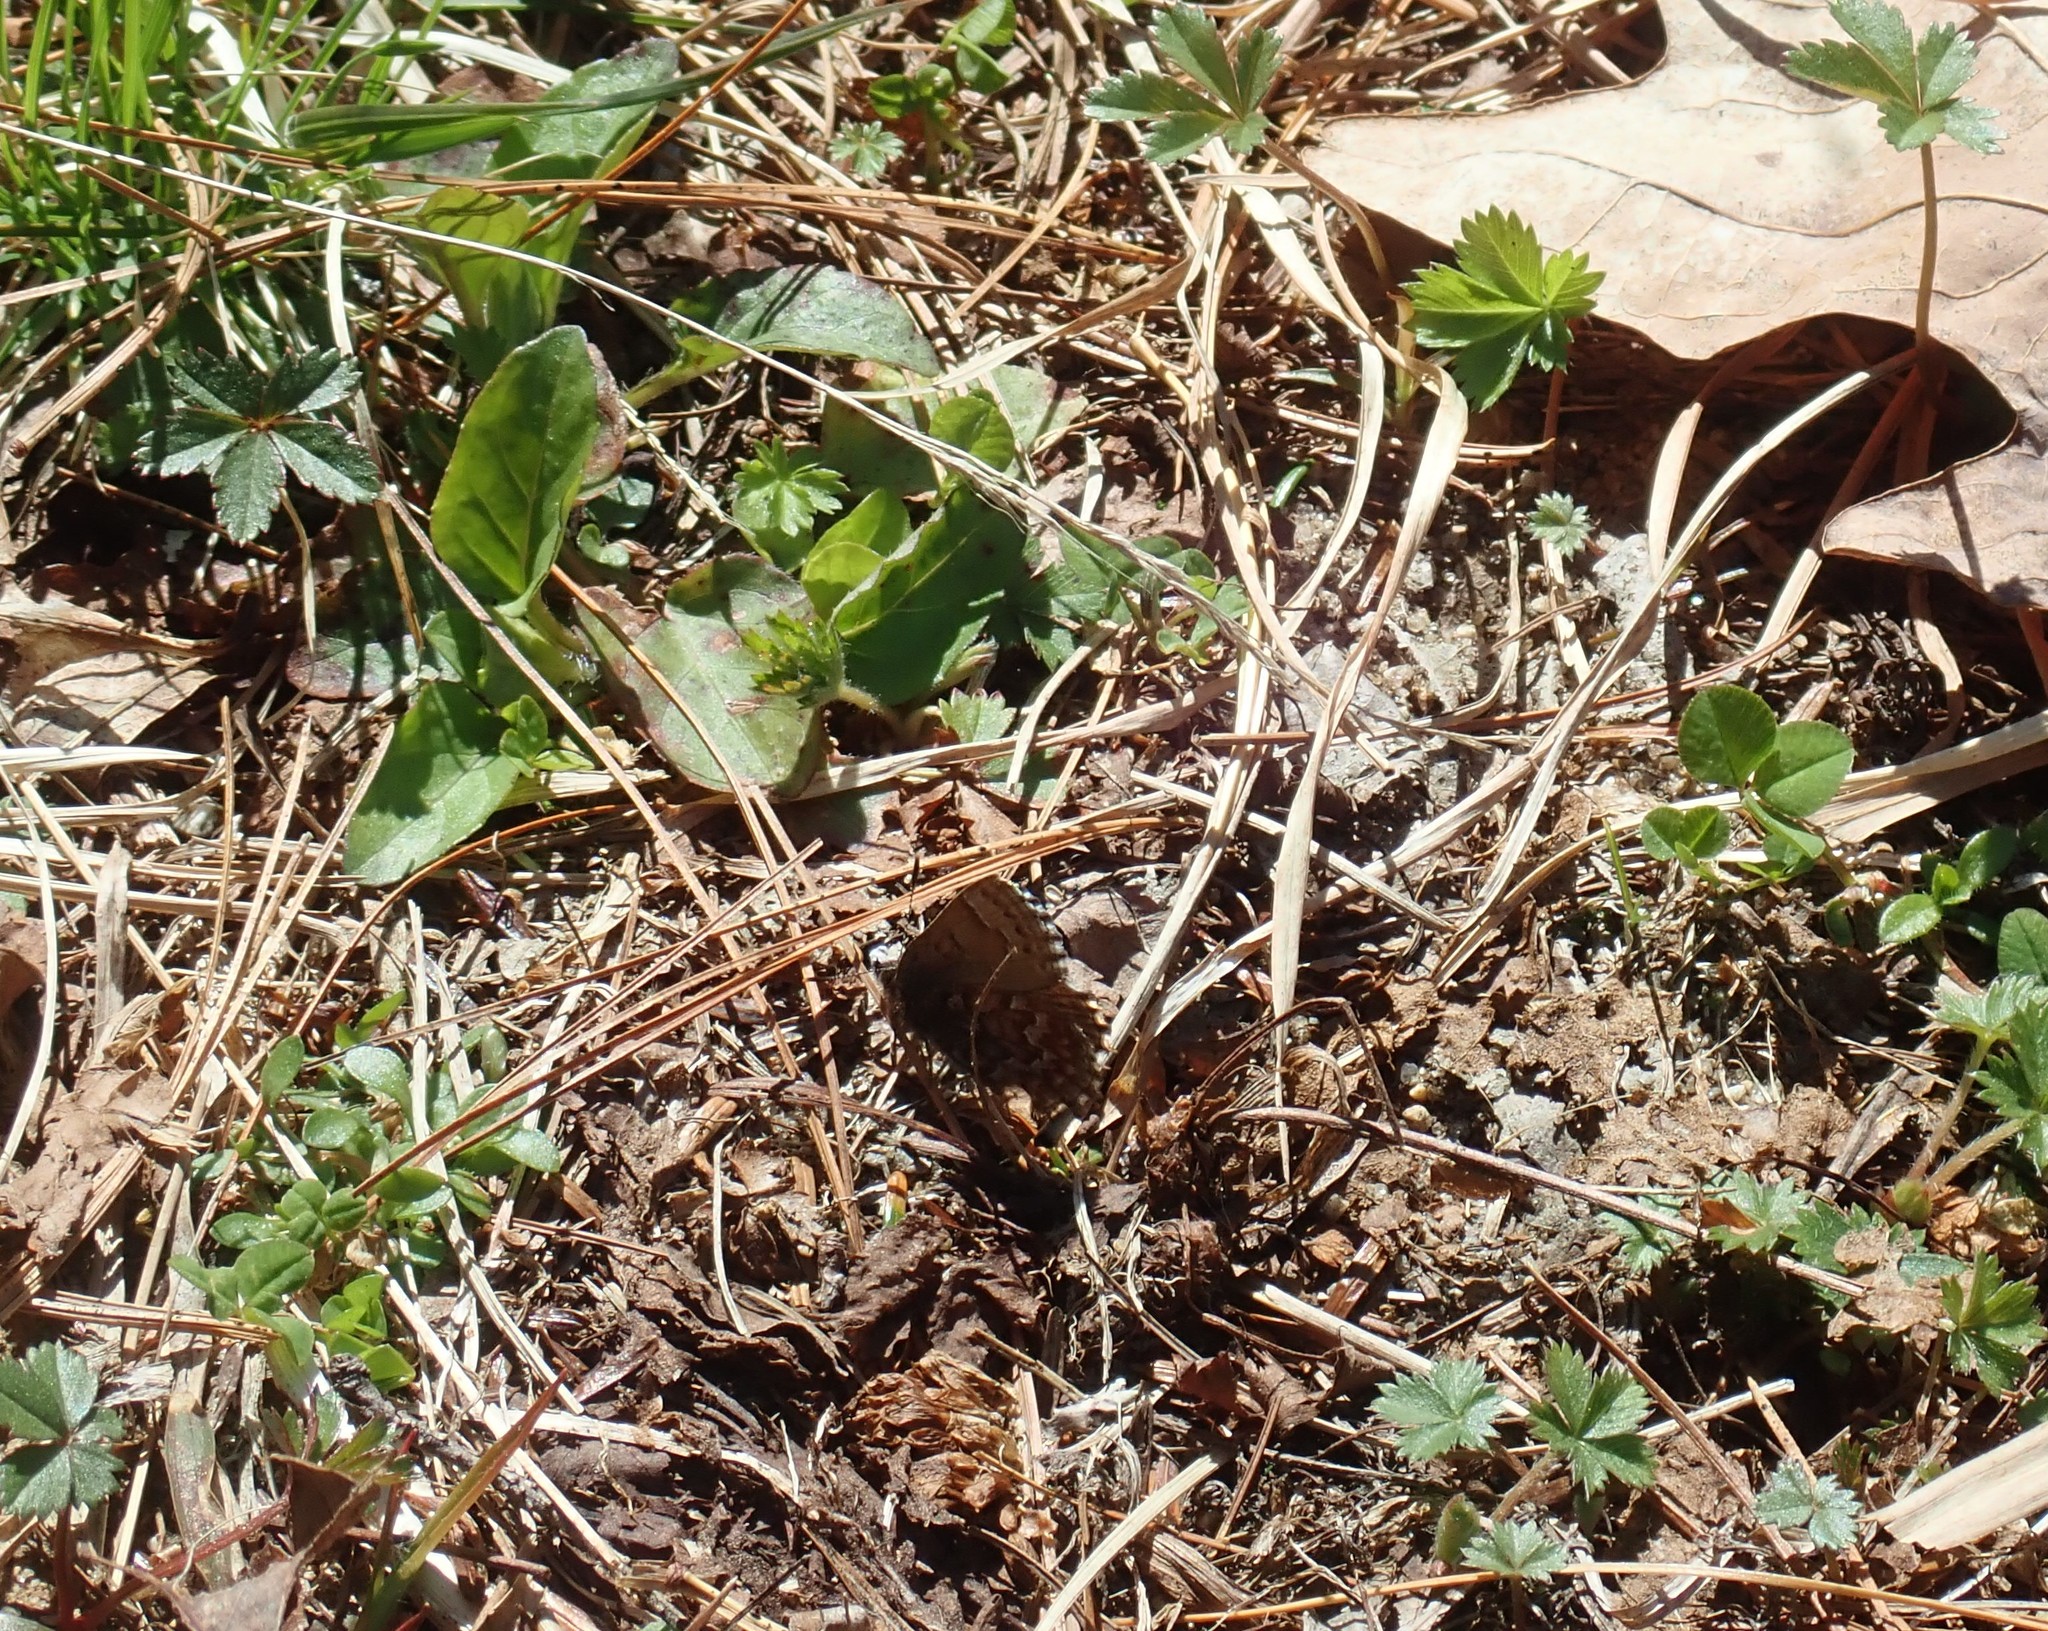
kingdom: Animalia
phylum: Arthropoda
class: Insecta
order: Lepidoptera
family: Lycaenidae
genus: Incisalia
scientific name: Incisalia niphon
